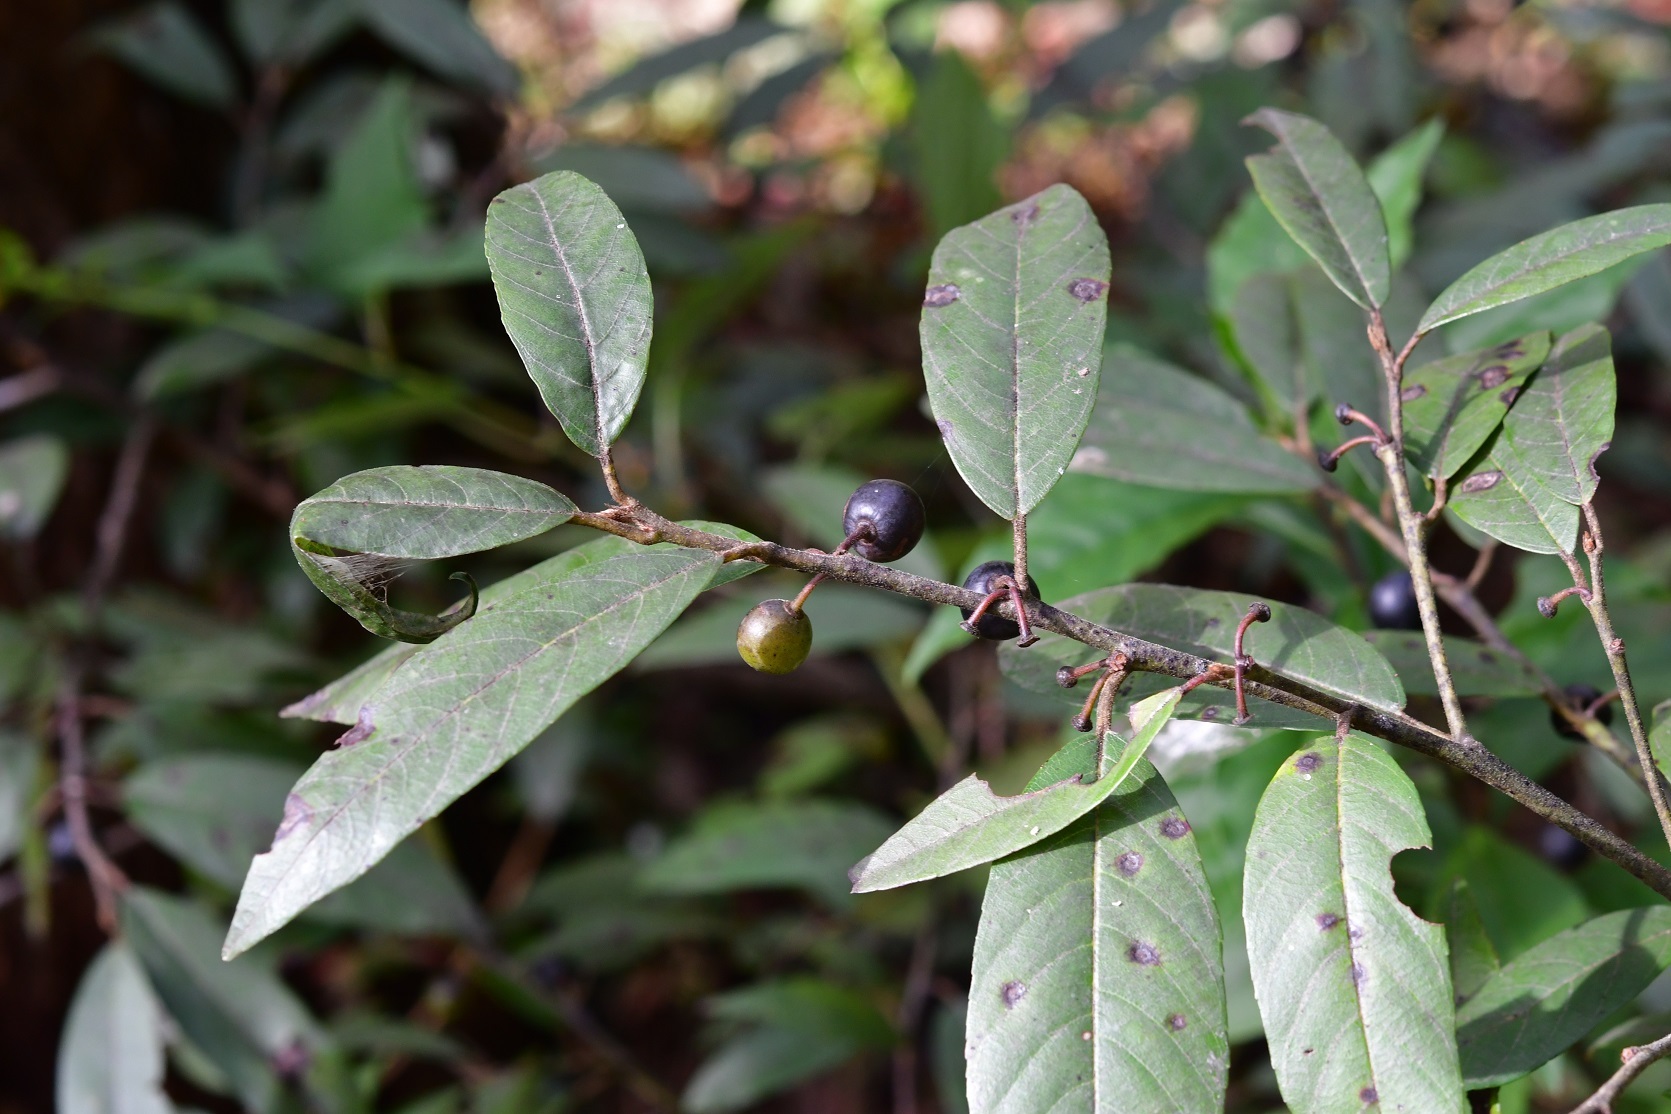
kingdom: Plantae
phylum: Tracheophyta
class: Magnoliopsida
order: Rosales
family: Rhamnaceae
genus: Frangula
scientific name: Frangula mucronata
